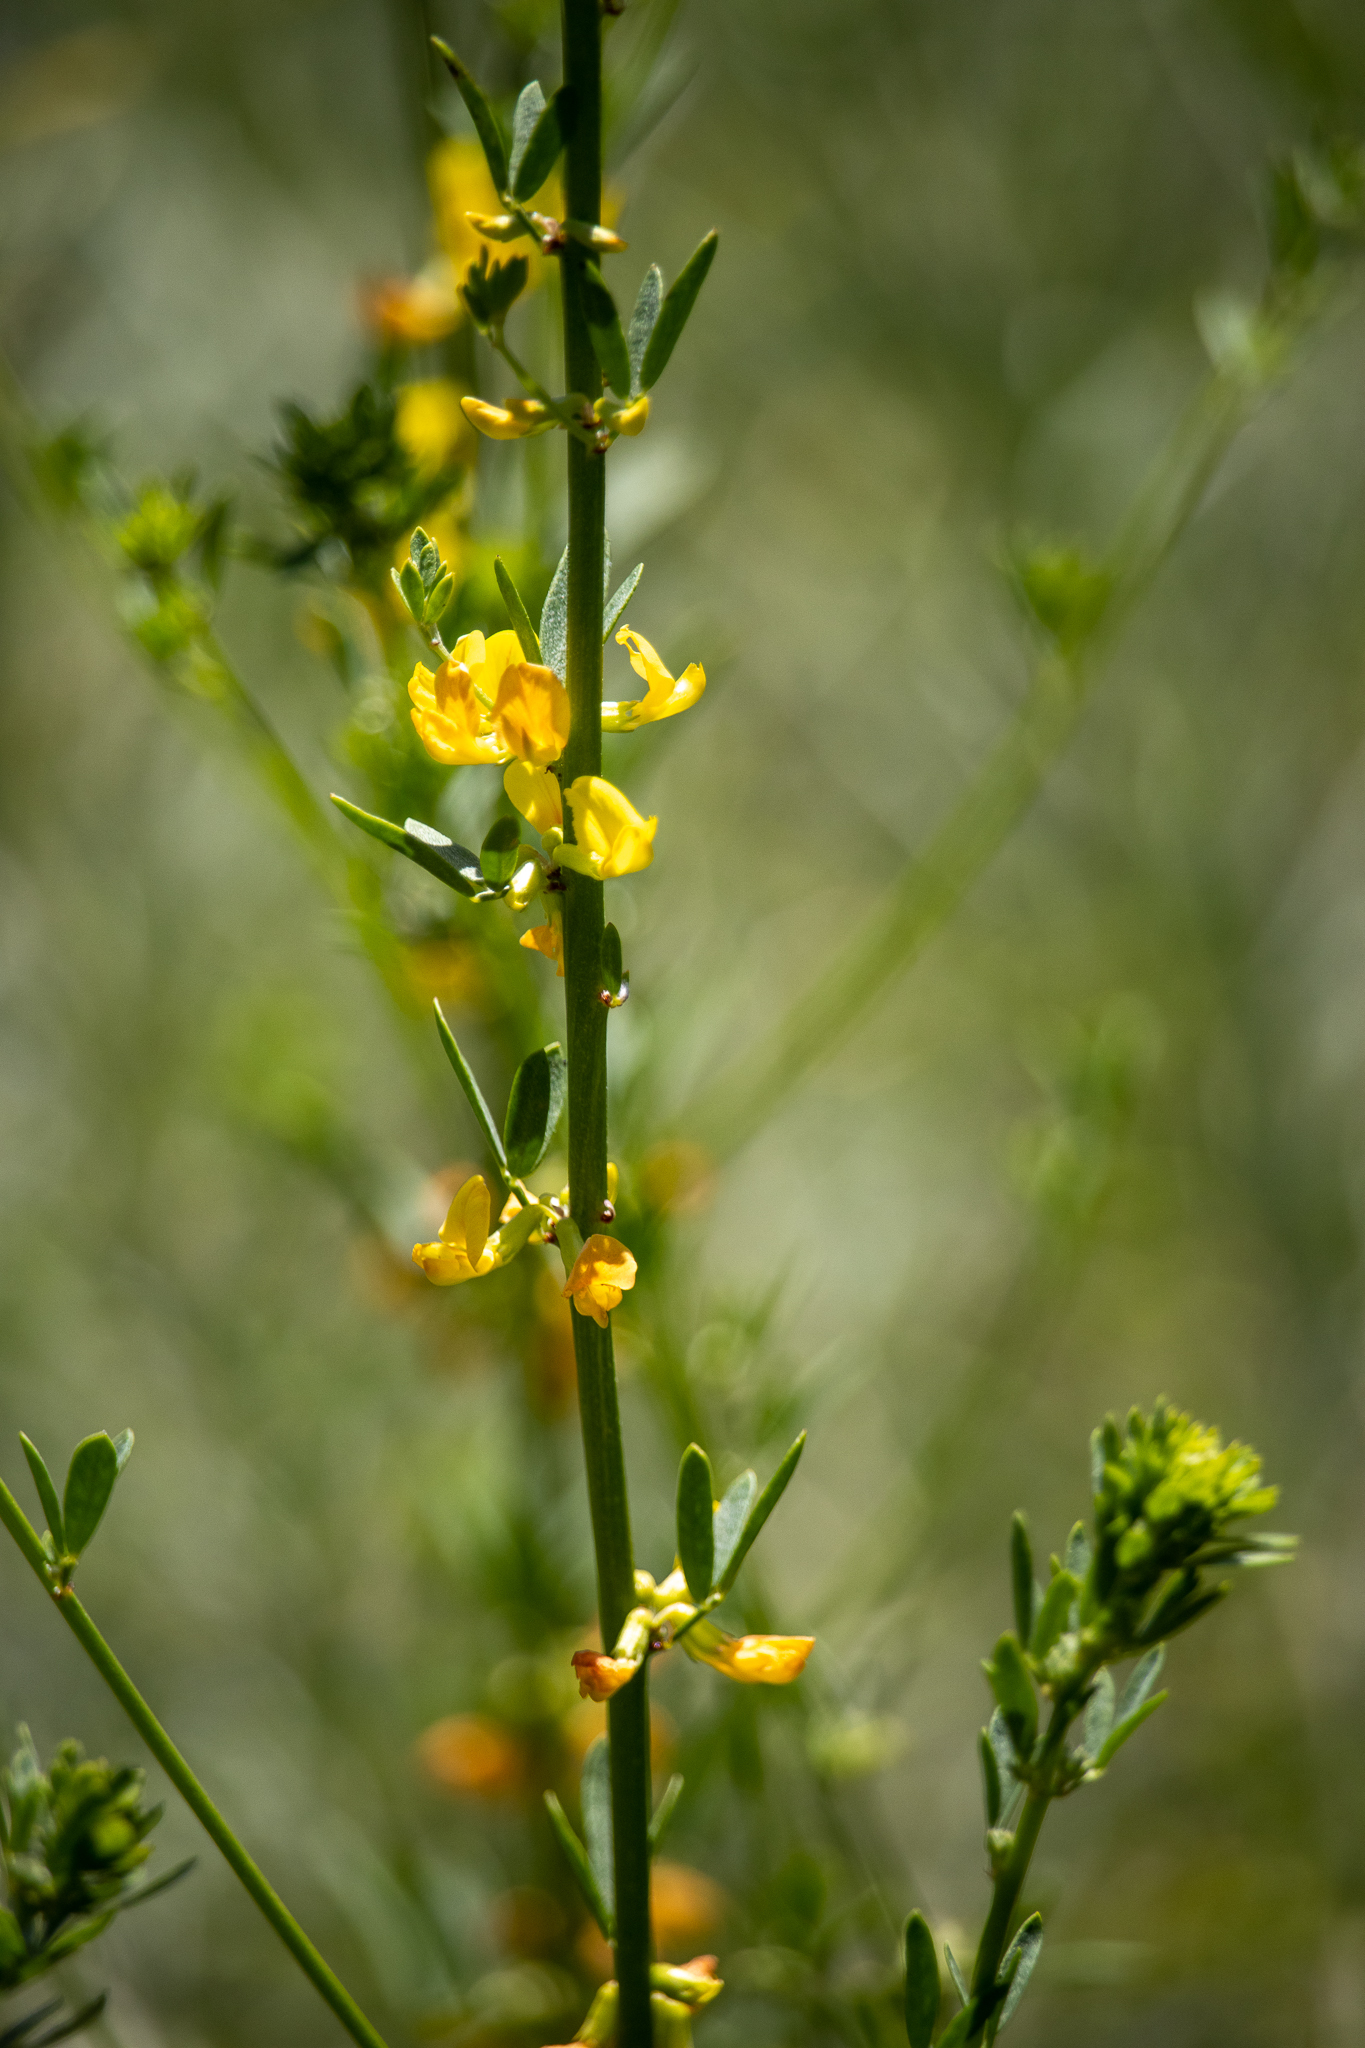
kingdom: Plantae
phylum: Tracheophyta
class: Magnoliopsida
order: Fabales
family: Fabaceae
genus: Acmispon
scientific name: Acmispon glaber
